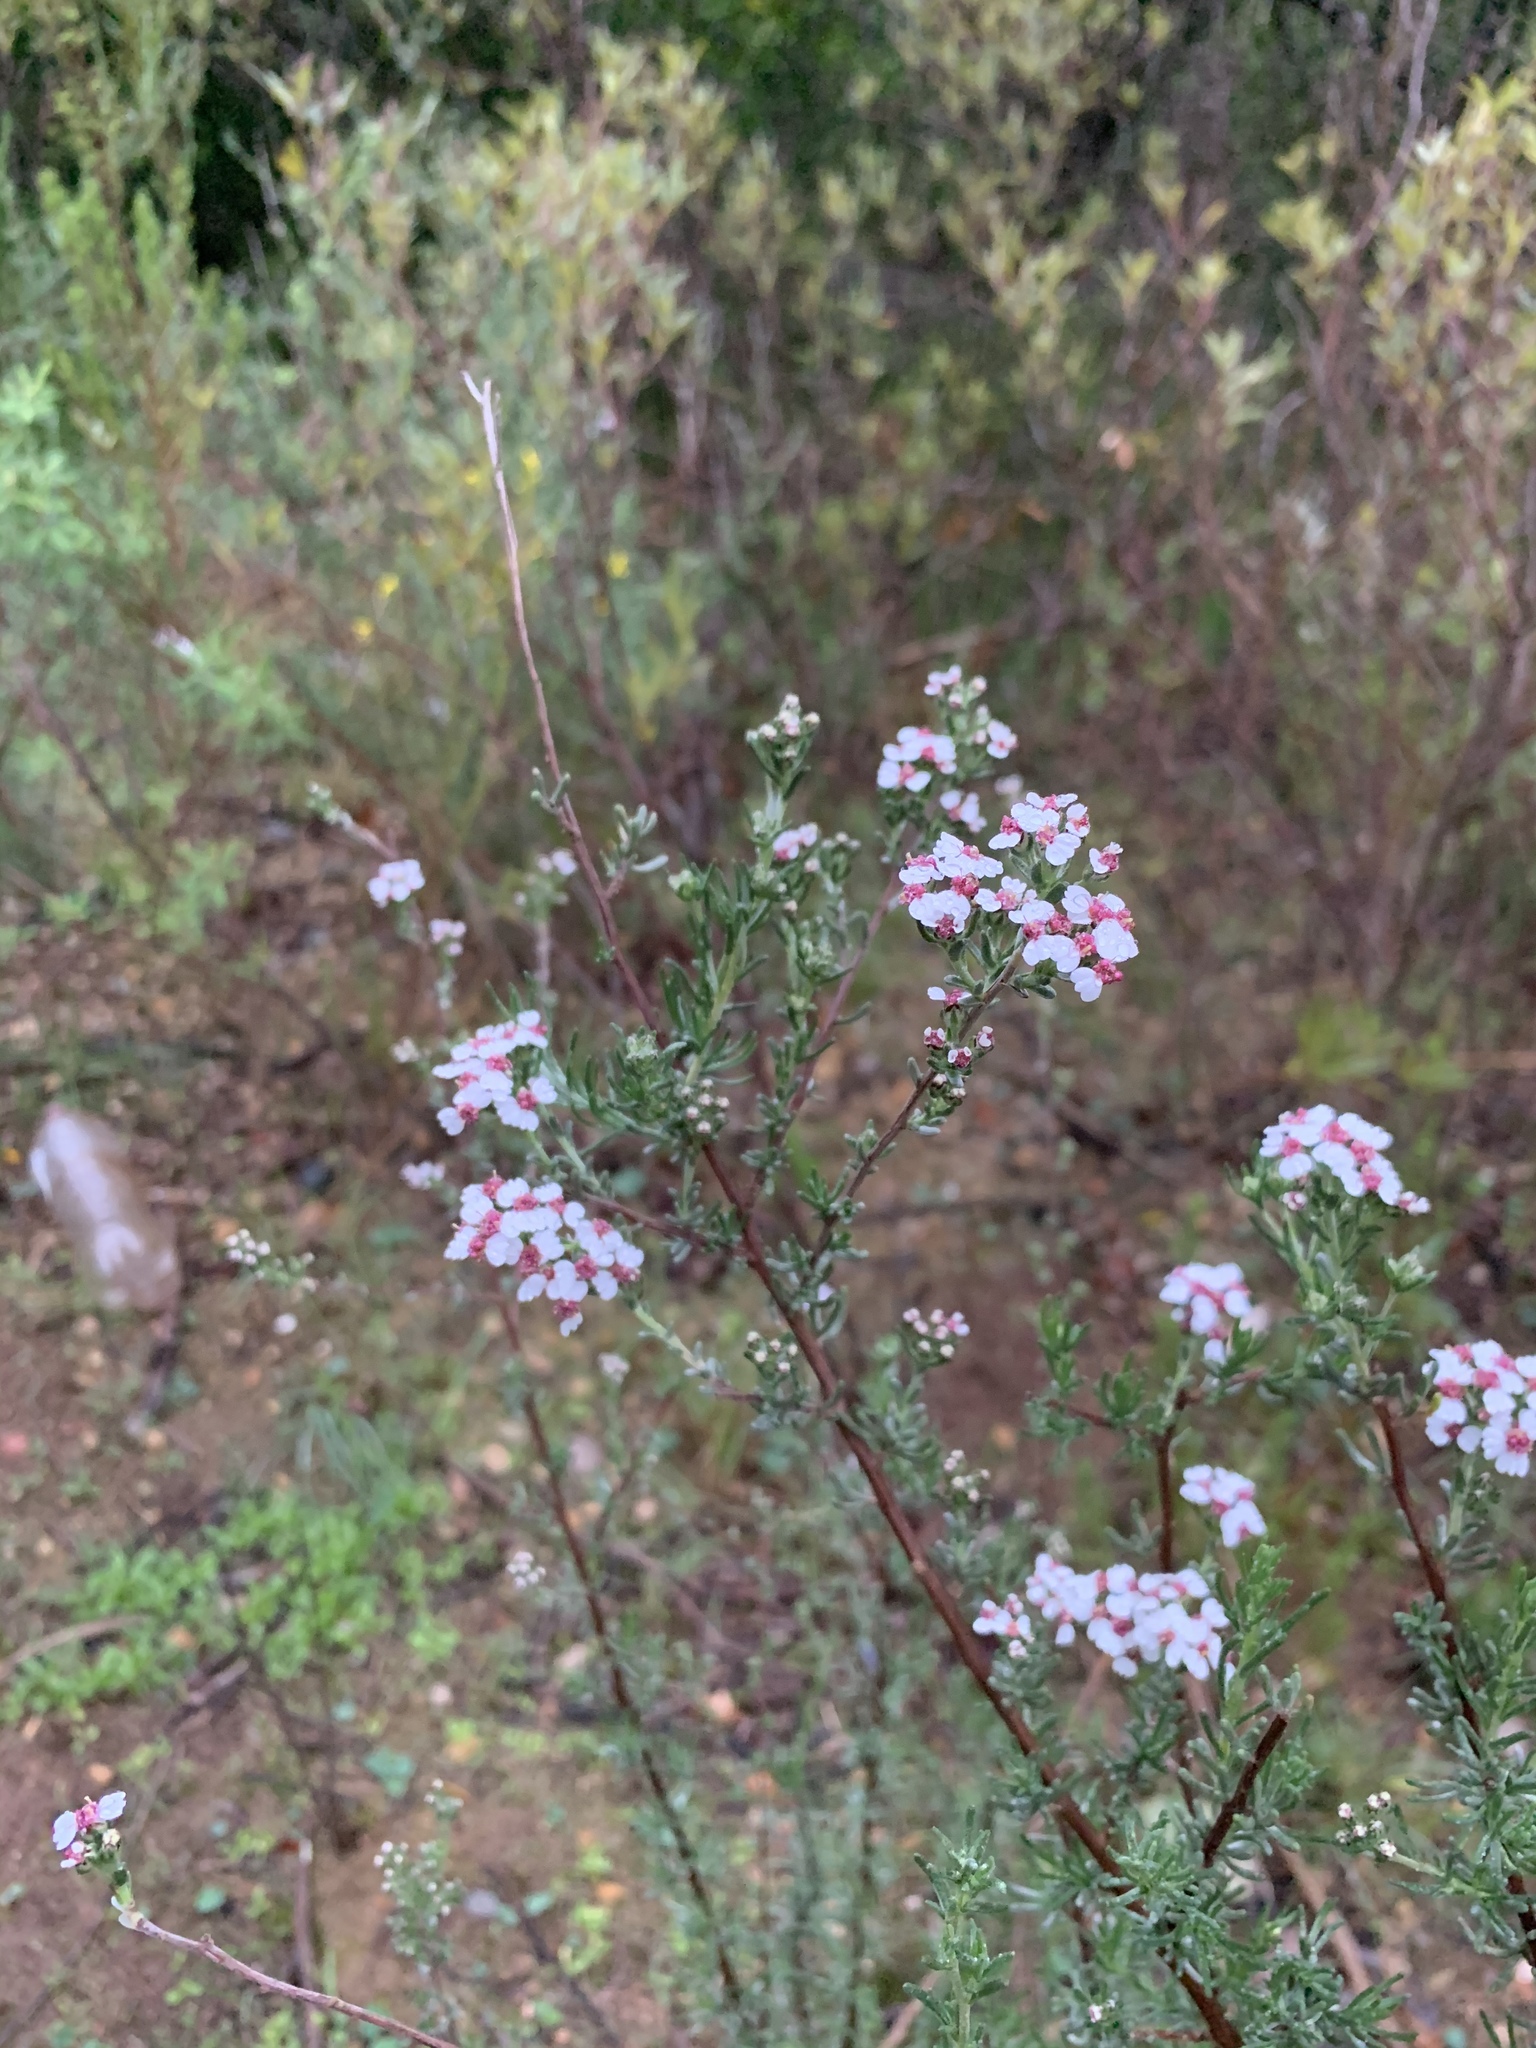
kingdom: Plantae
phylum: Tracheophyta
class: Magnoliopsida
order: Asterales
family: Asteraceae
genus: Eriocephalus
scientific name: Eriocephalus africanus
